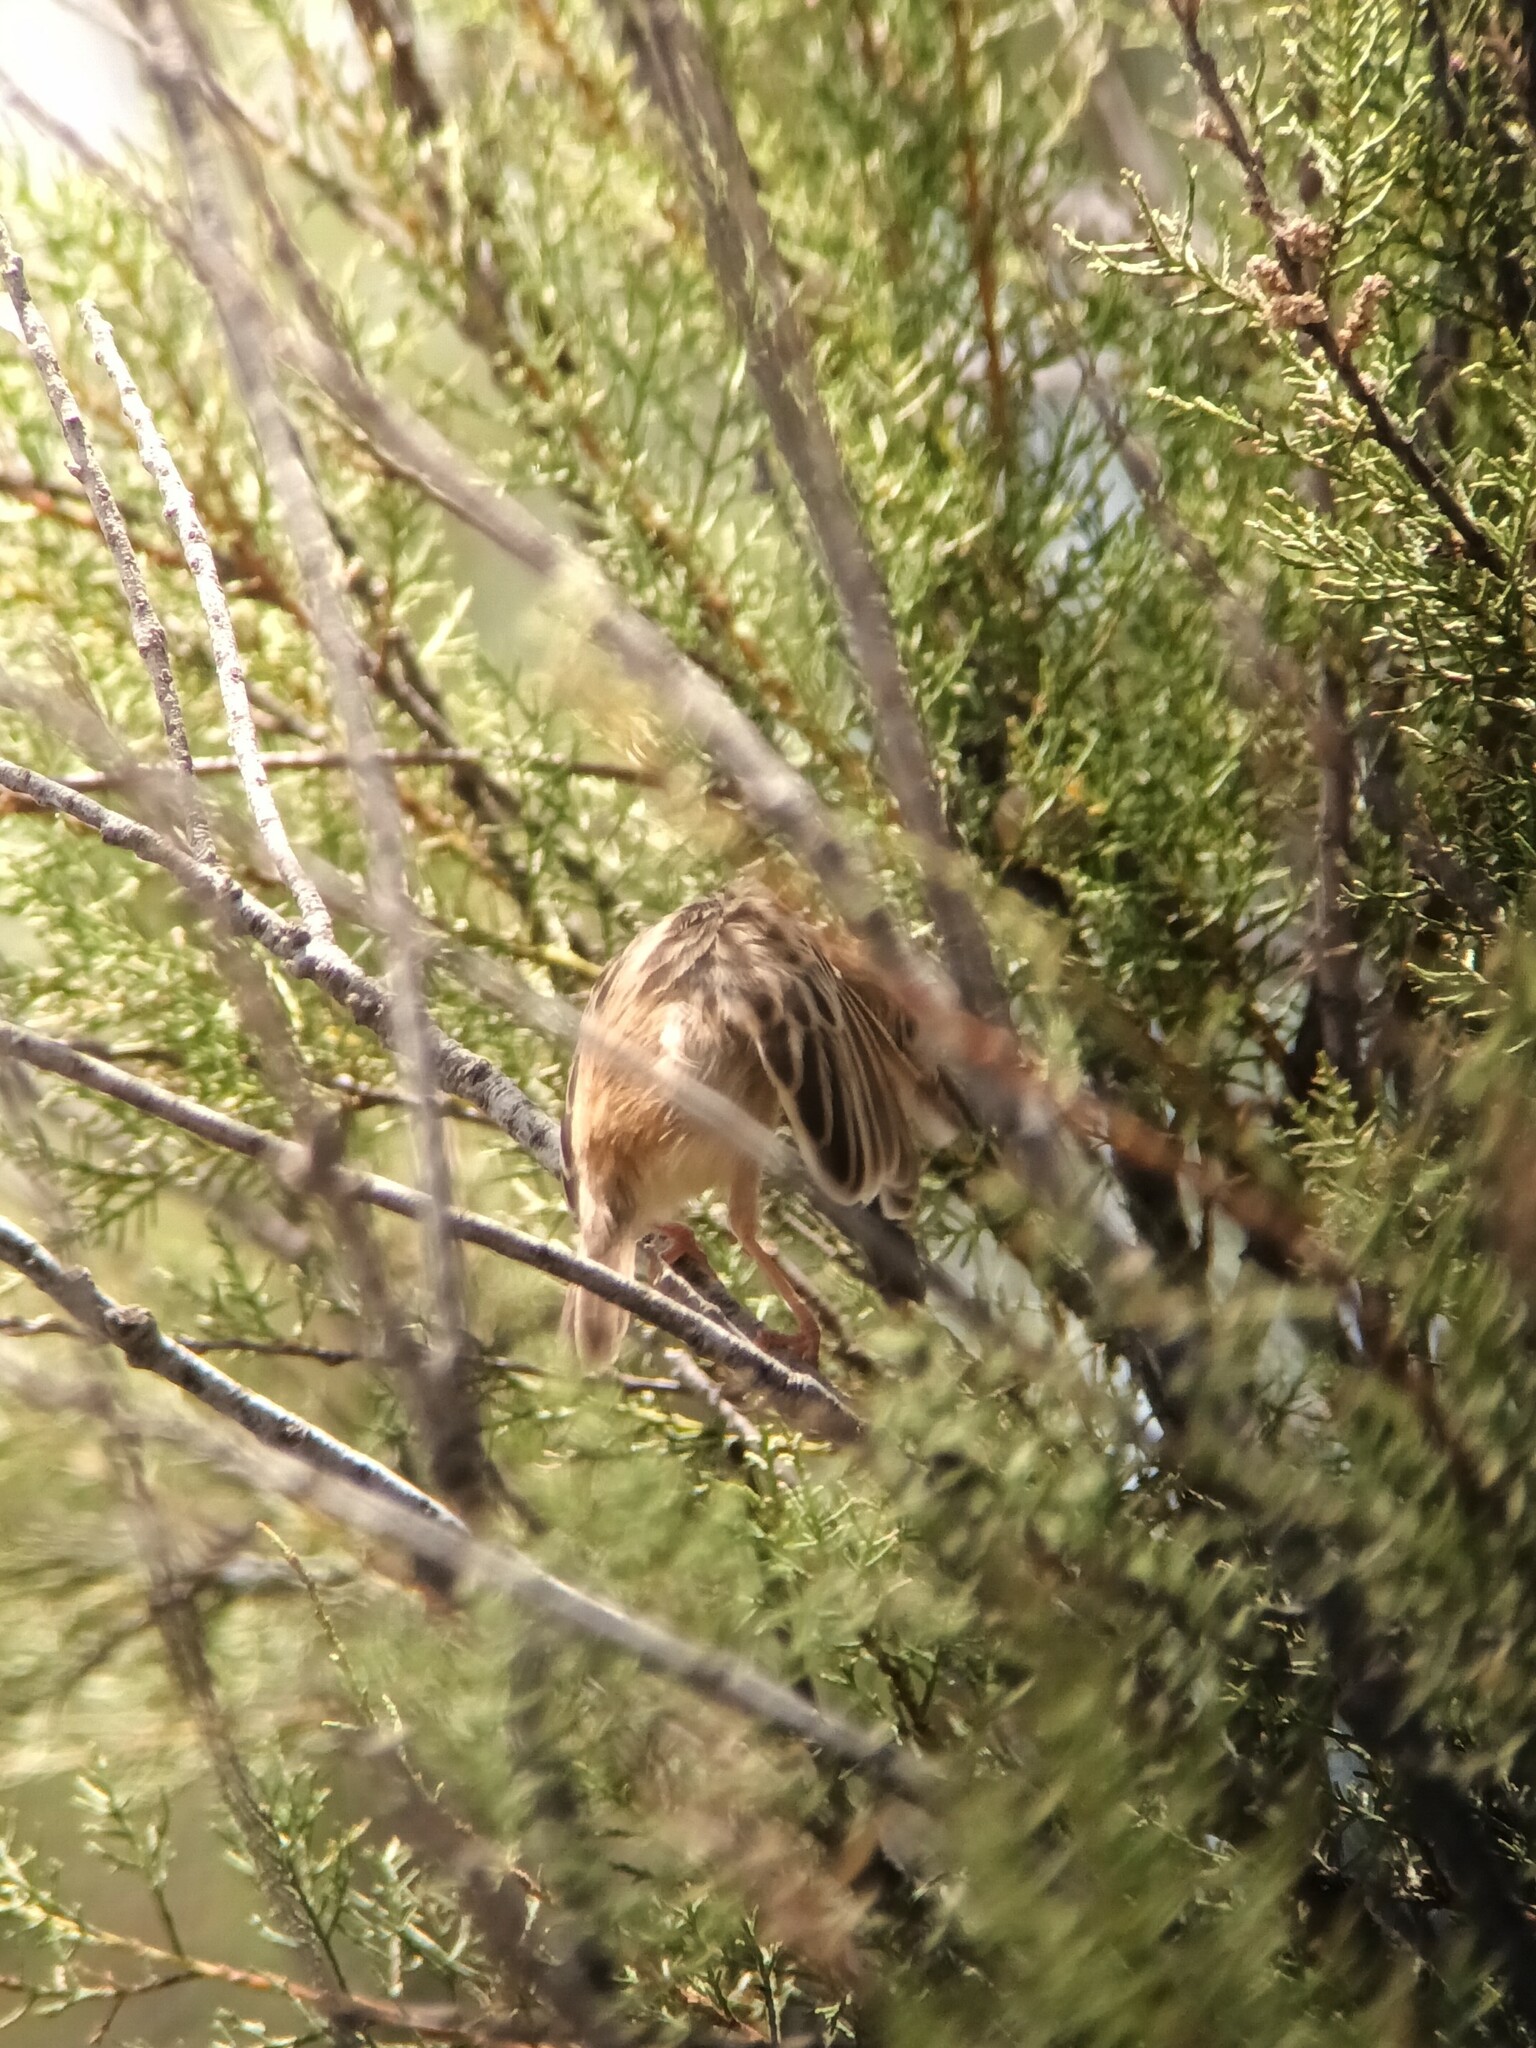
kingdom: Animalia
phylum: Chordata
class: Aves
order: Passeriformes
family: Cisticolidae
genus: Cisticola
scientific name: Cisticola juncidis
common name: Zitting cisticola
